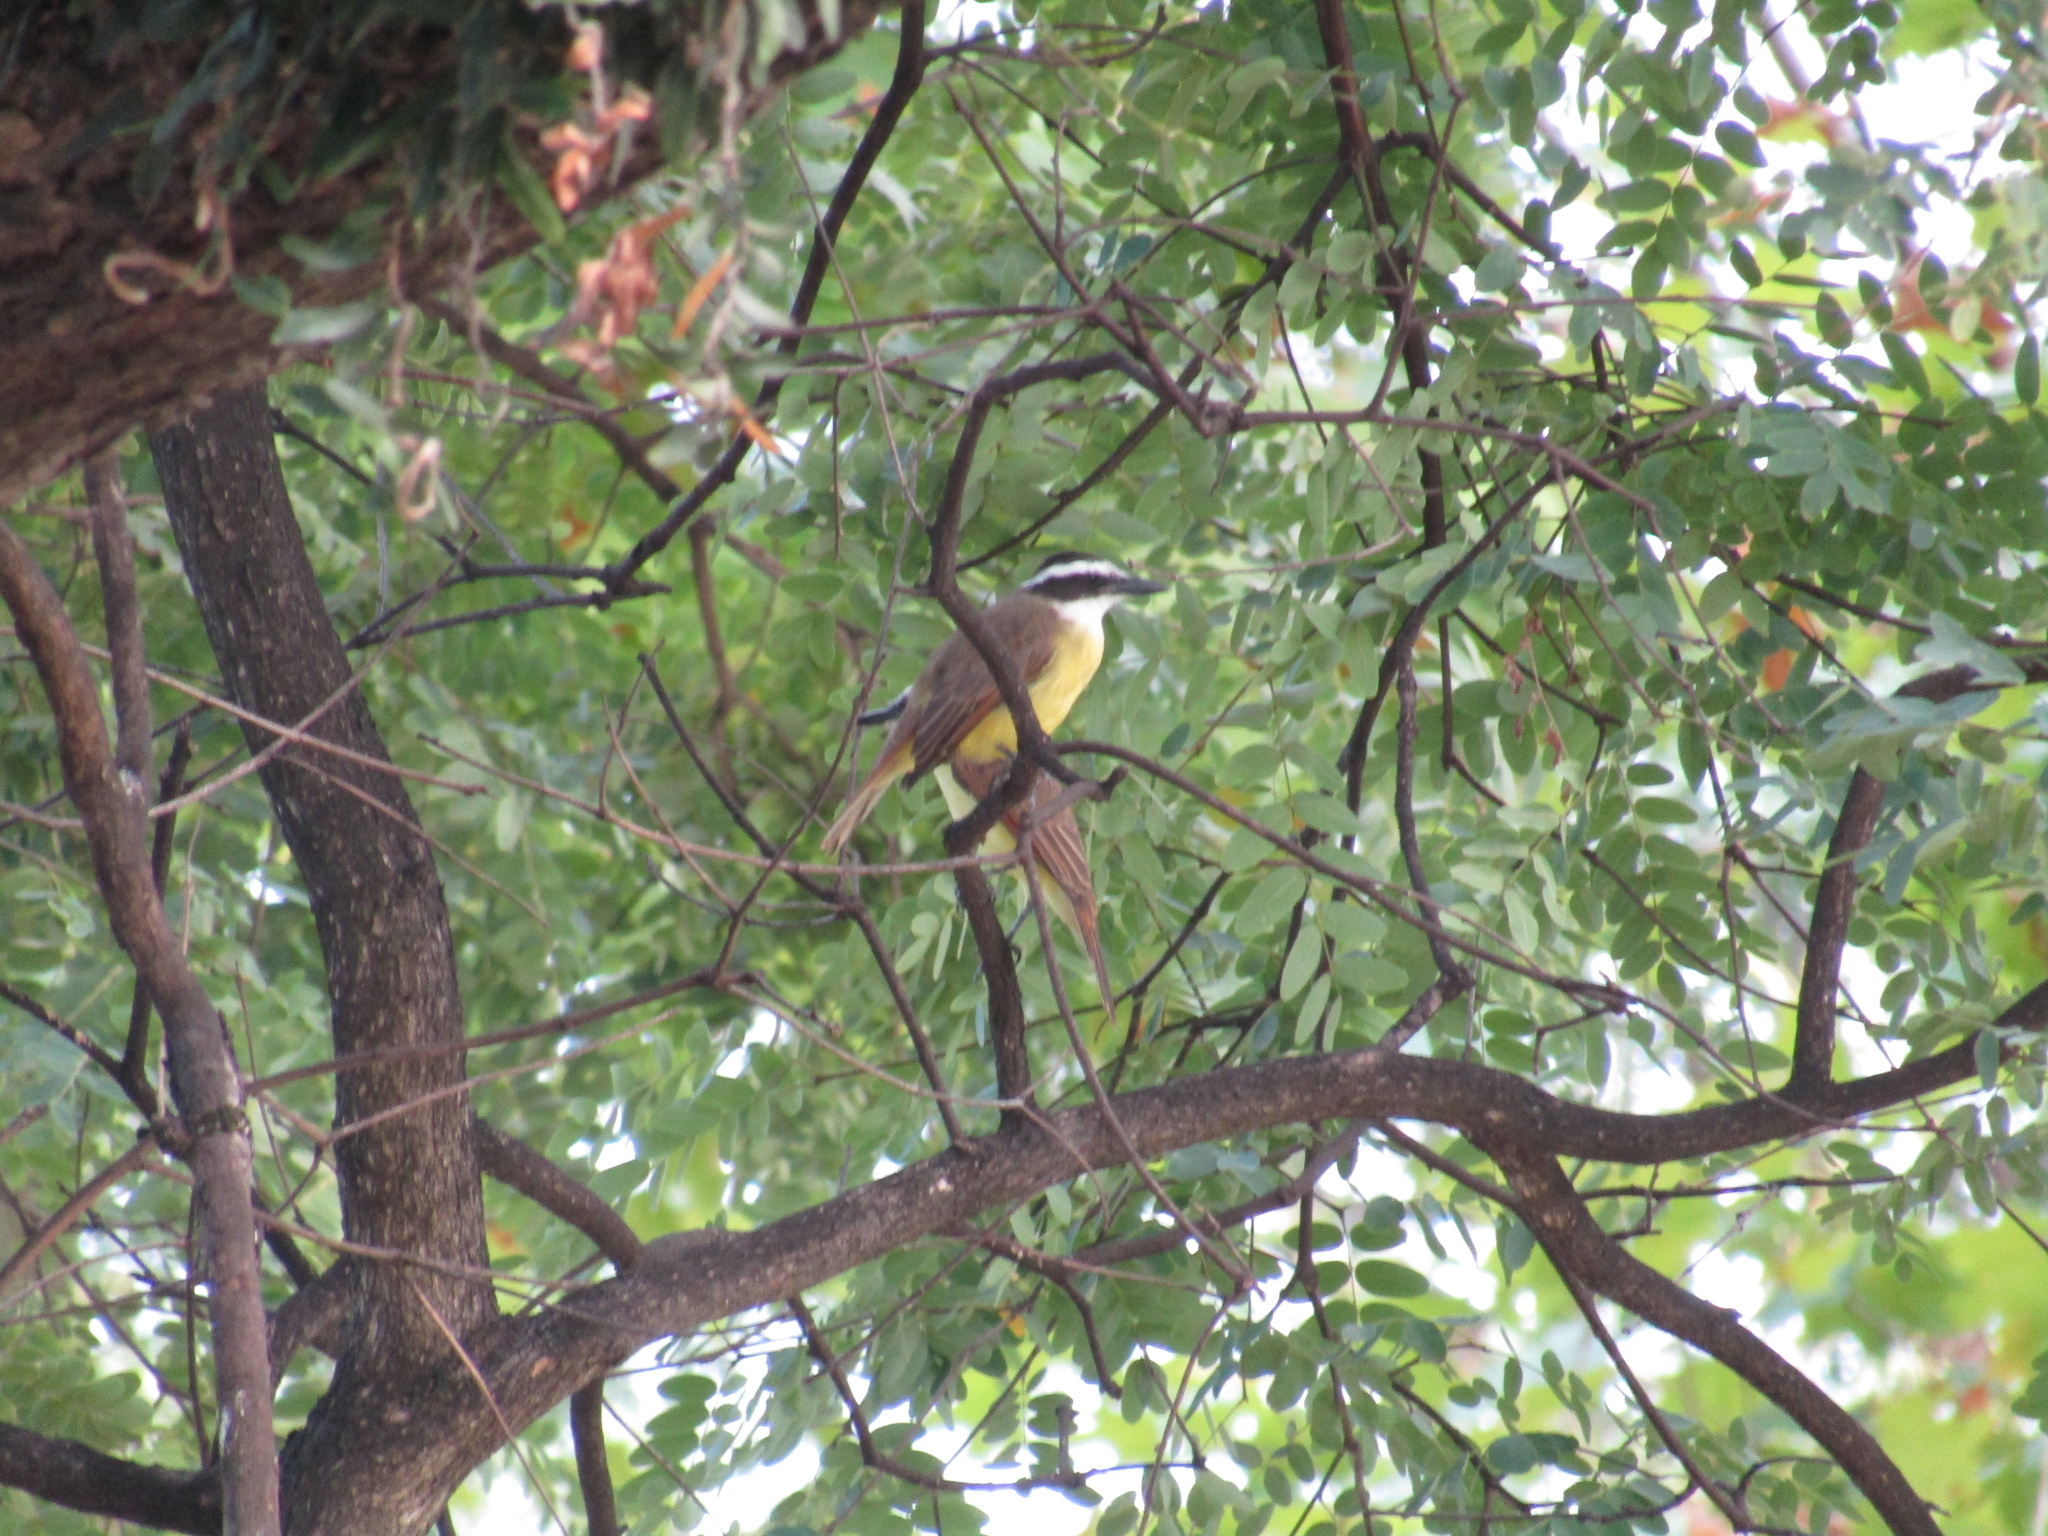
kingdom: Animalia
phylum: Chordata
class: Aves
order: Passeriformes
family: Tyrannidae
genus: Pitangus
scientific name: Pitangus sulphuratus
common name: Great kiskadee
